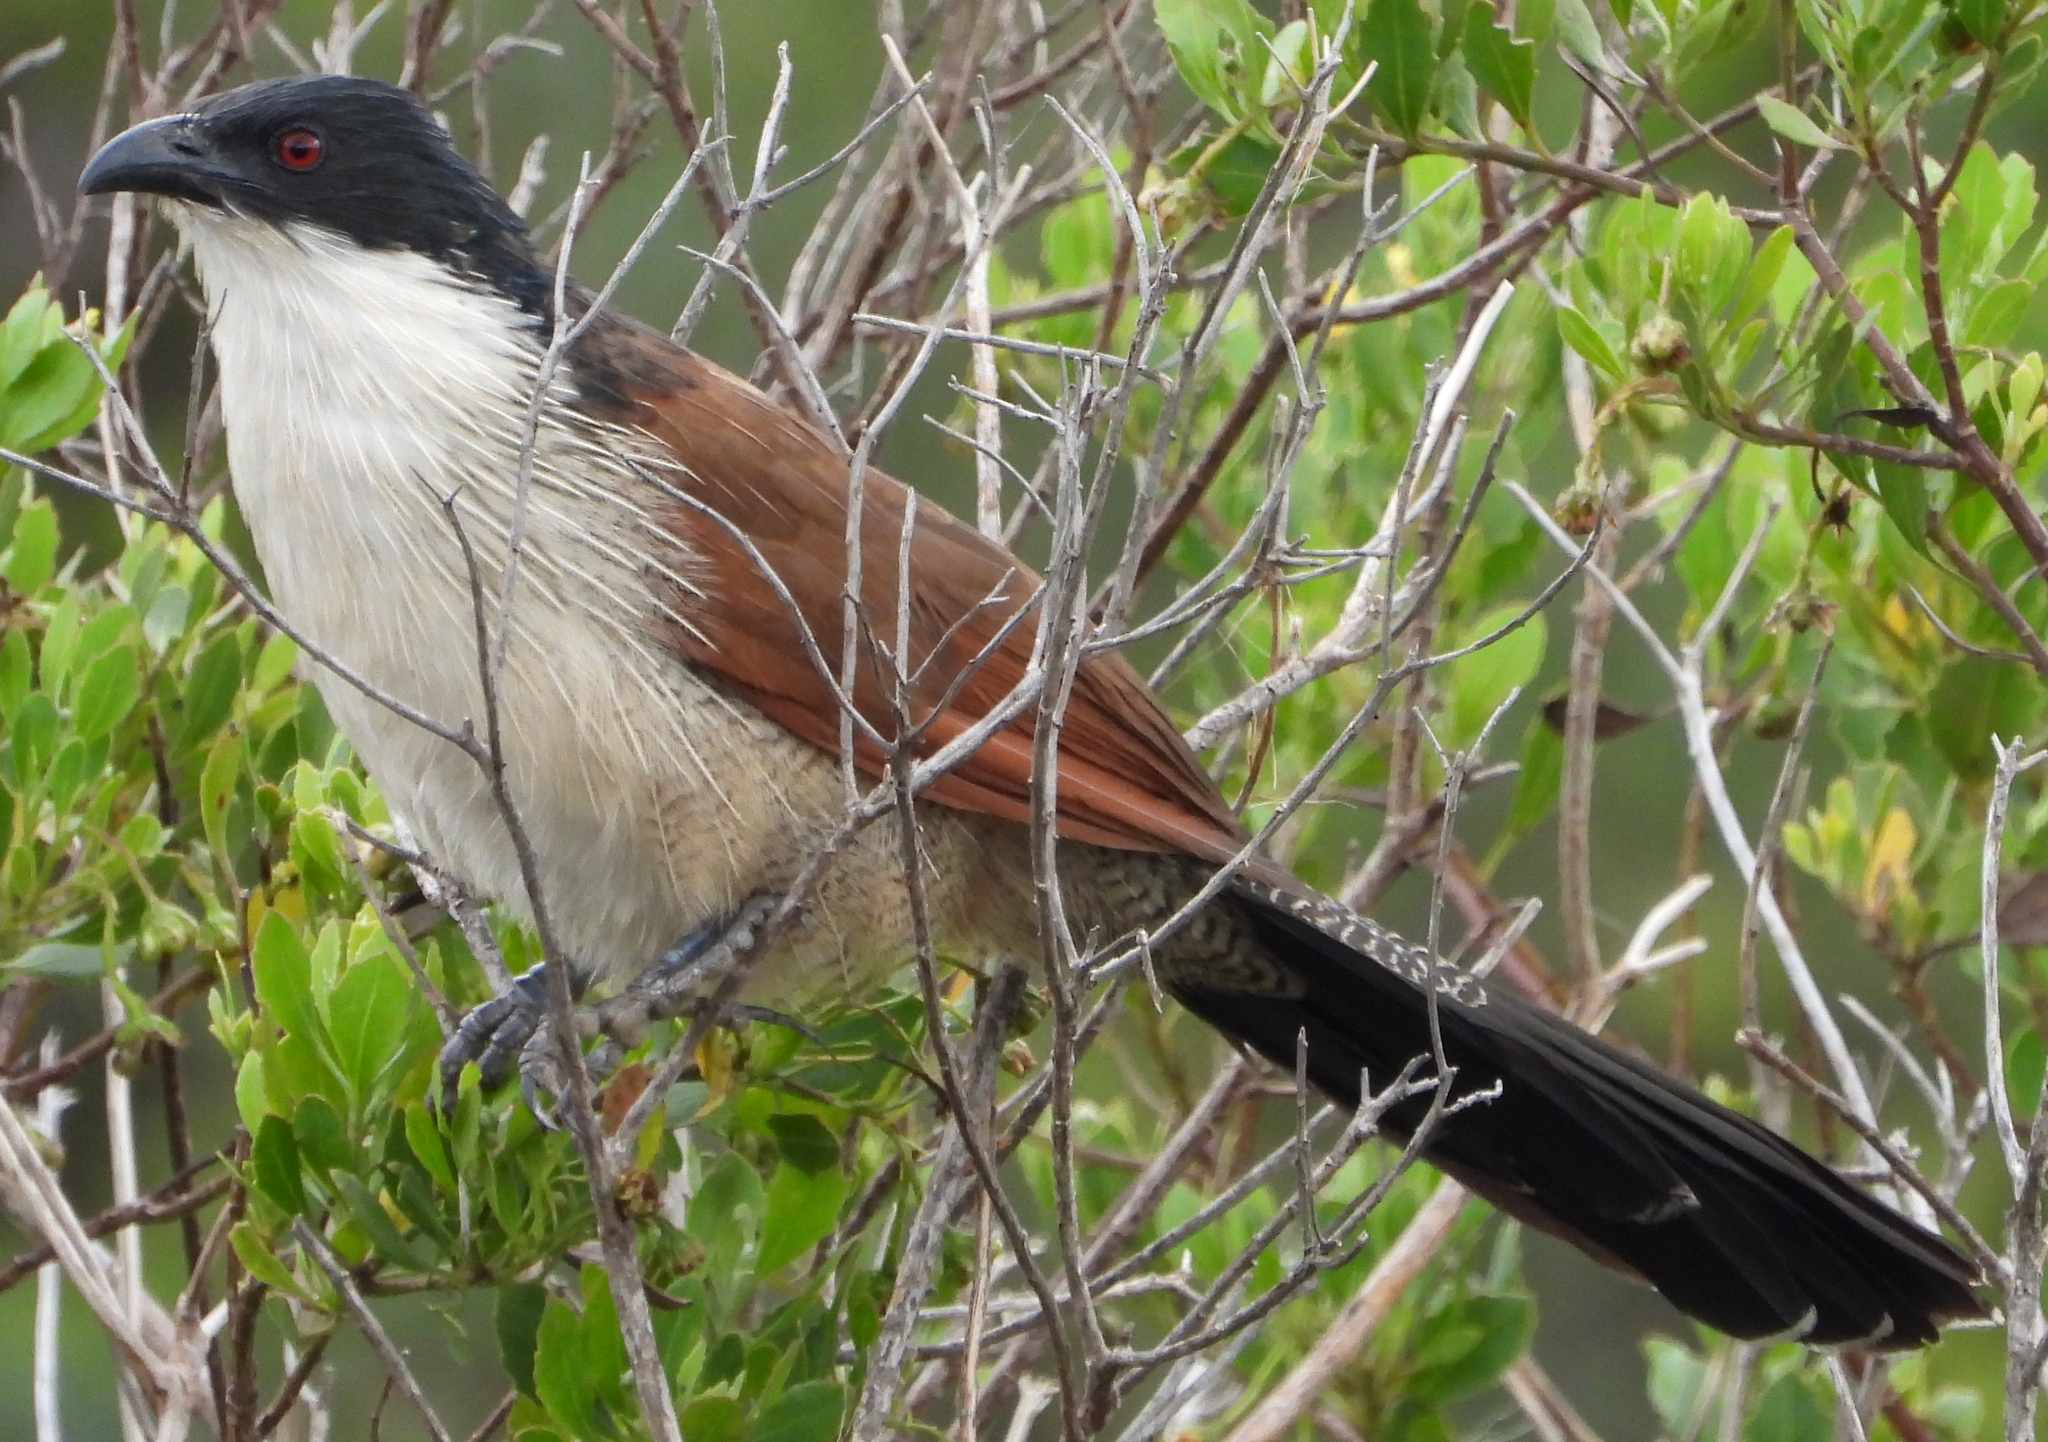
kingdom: Animalia
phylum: Chordata
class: Aves
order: Cuculiformes
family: Cuculidae
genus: Centropus
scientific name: Centropus superciliosus
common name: White-browed coucal
